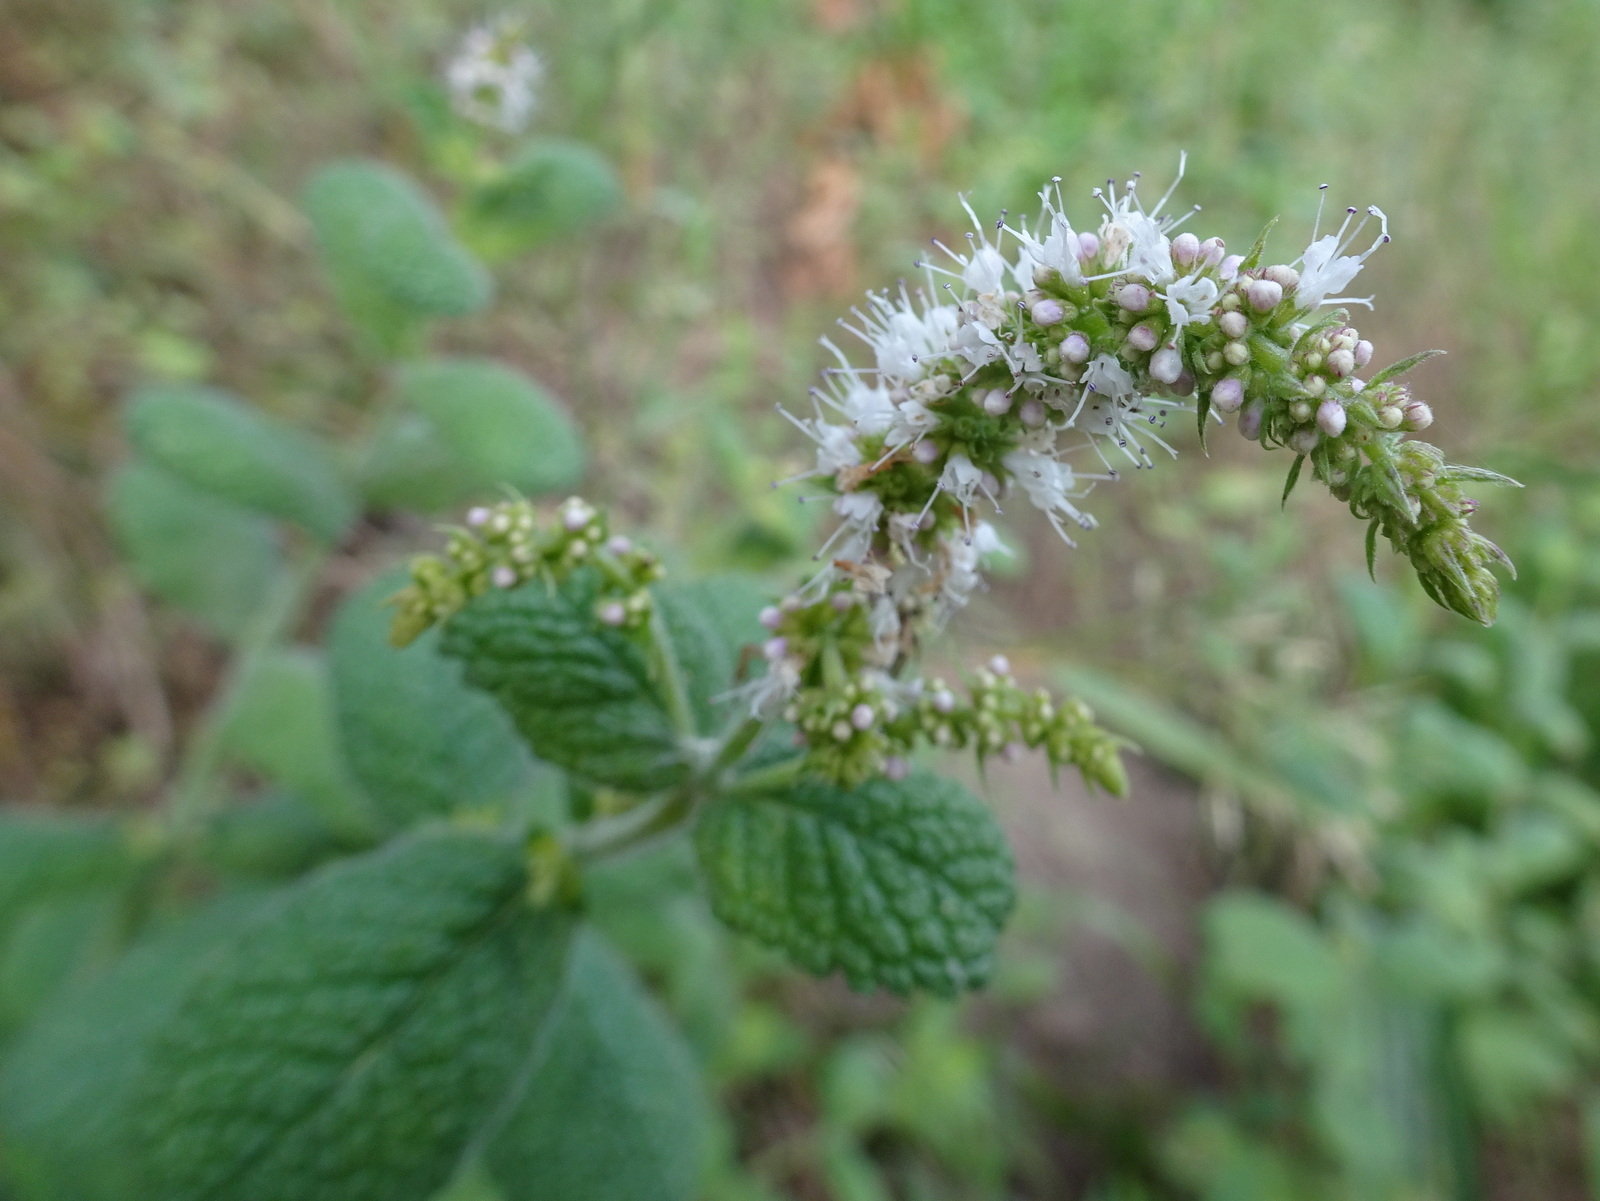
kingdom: Plantae
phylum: Tracheophyta
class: Magnoliopsida
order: Lamiales
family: Lamiaceae
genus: Mentha
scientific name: Mentha suaveolens
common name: Apple mint
